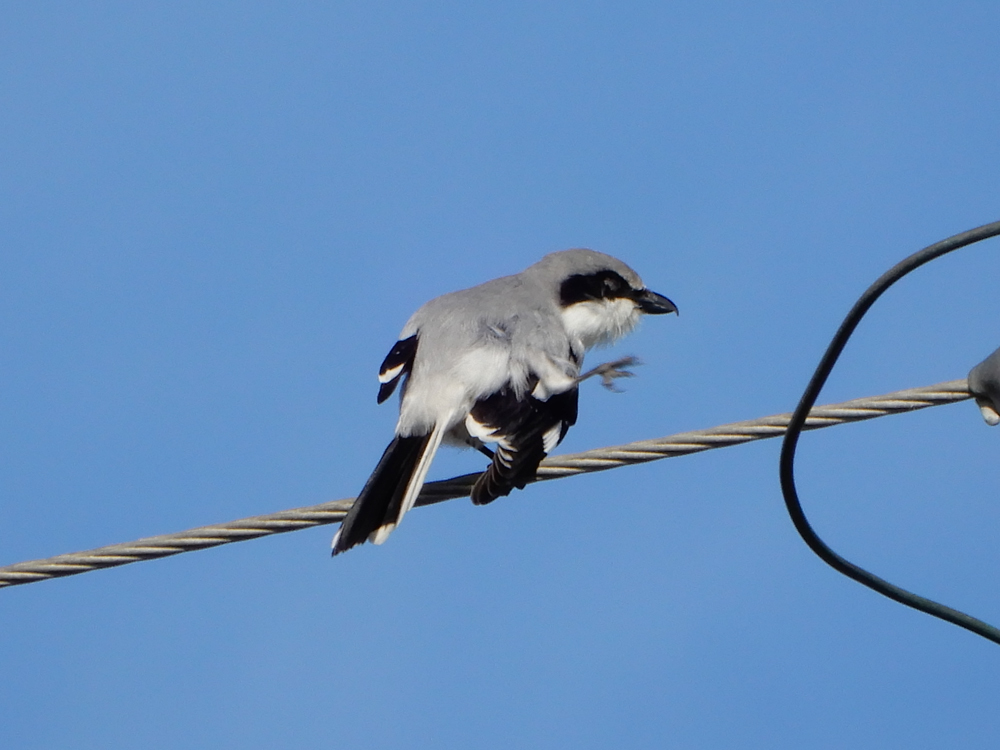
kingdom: Animalia
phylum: Chordata
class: Aves
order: Passeriformes
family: Laniidae
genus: Lanius
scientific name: Lanius ludovicianus
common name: Loggerhead shrike
